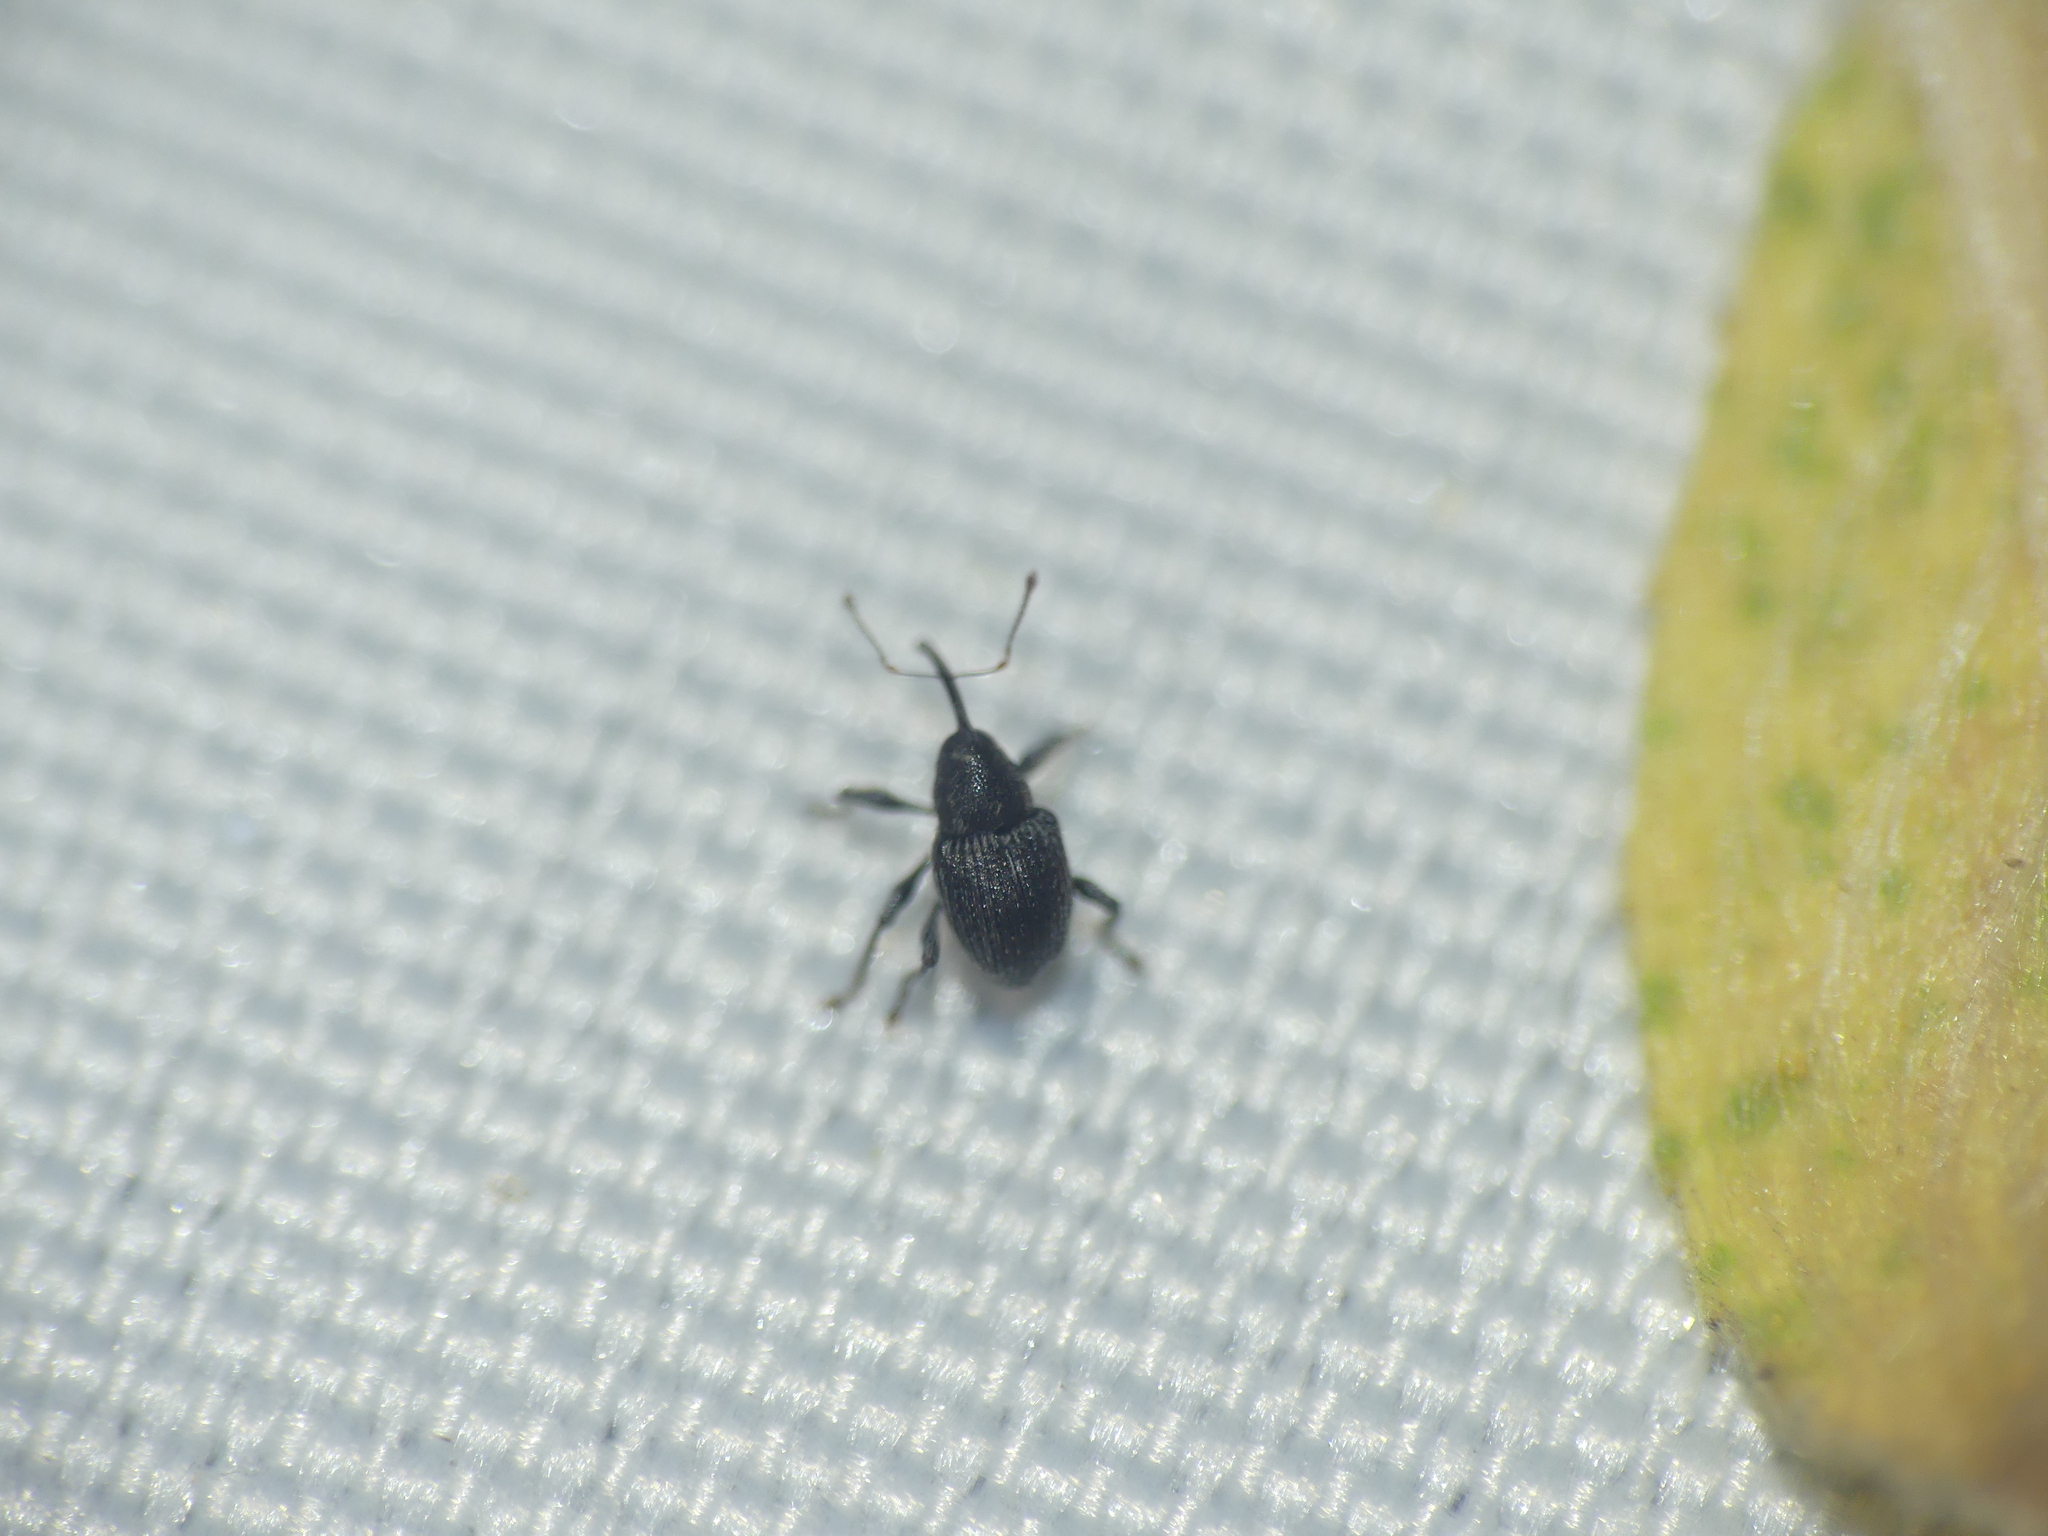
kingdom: Animalia
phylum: Arthropoda
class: Insecta
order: Coleoptera
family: Curculionidae
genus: Archarius
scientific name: Archarius salicivorus
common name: Weevil
